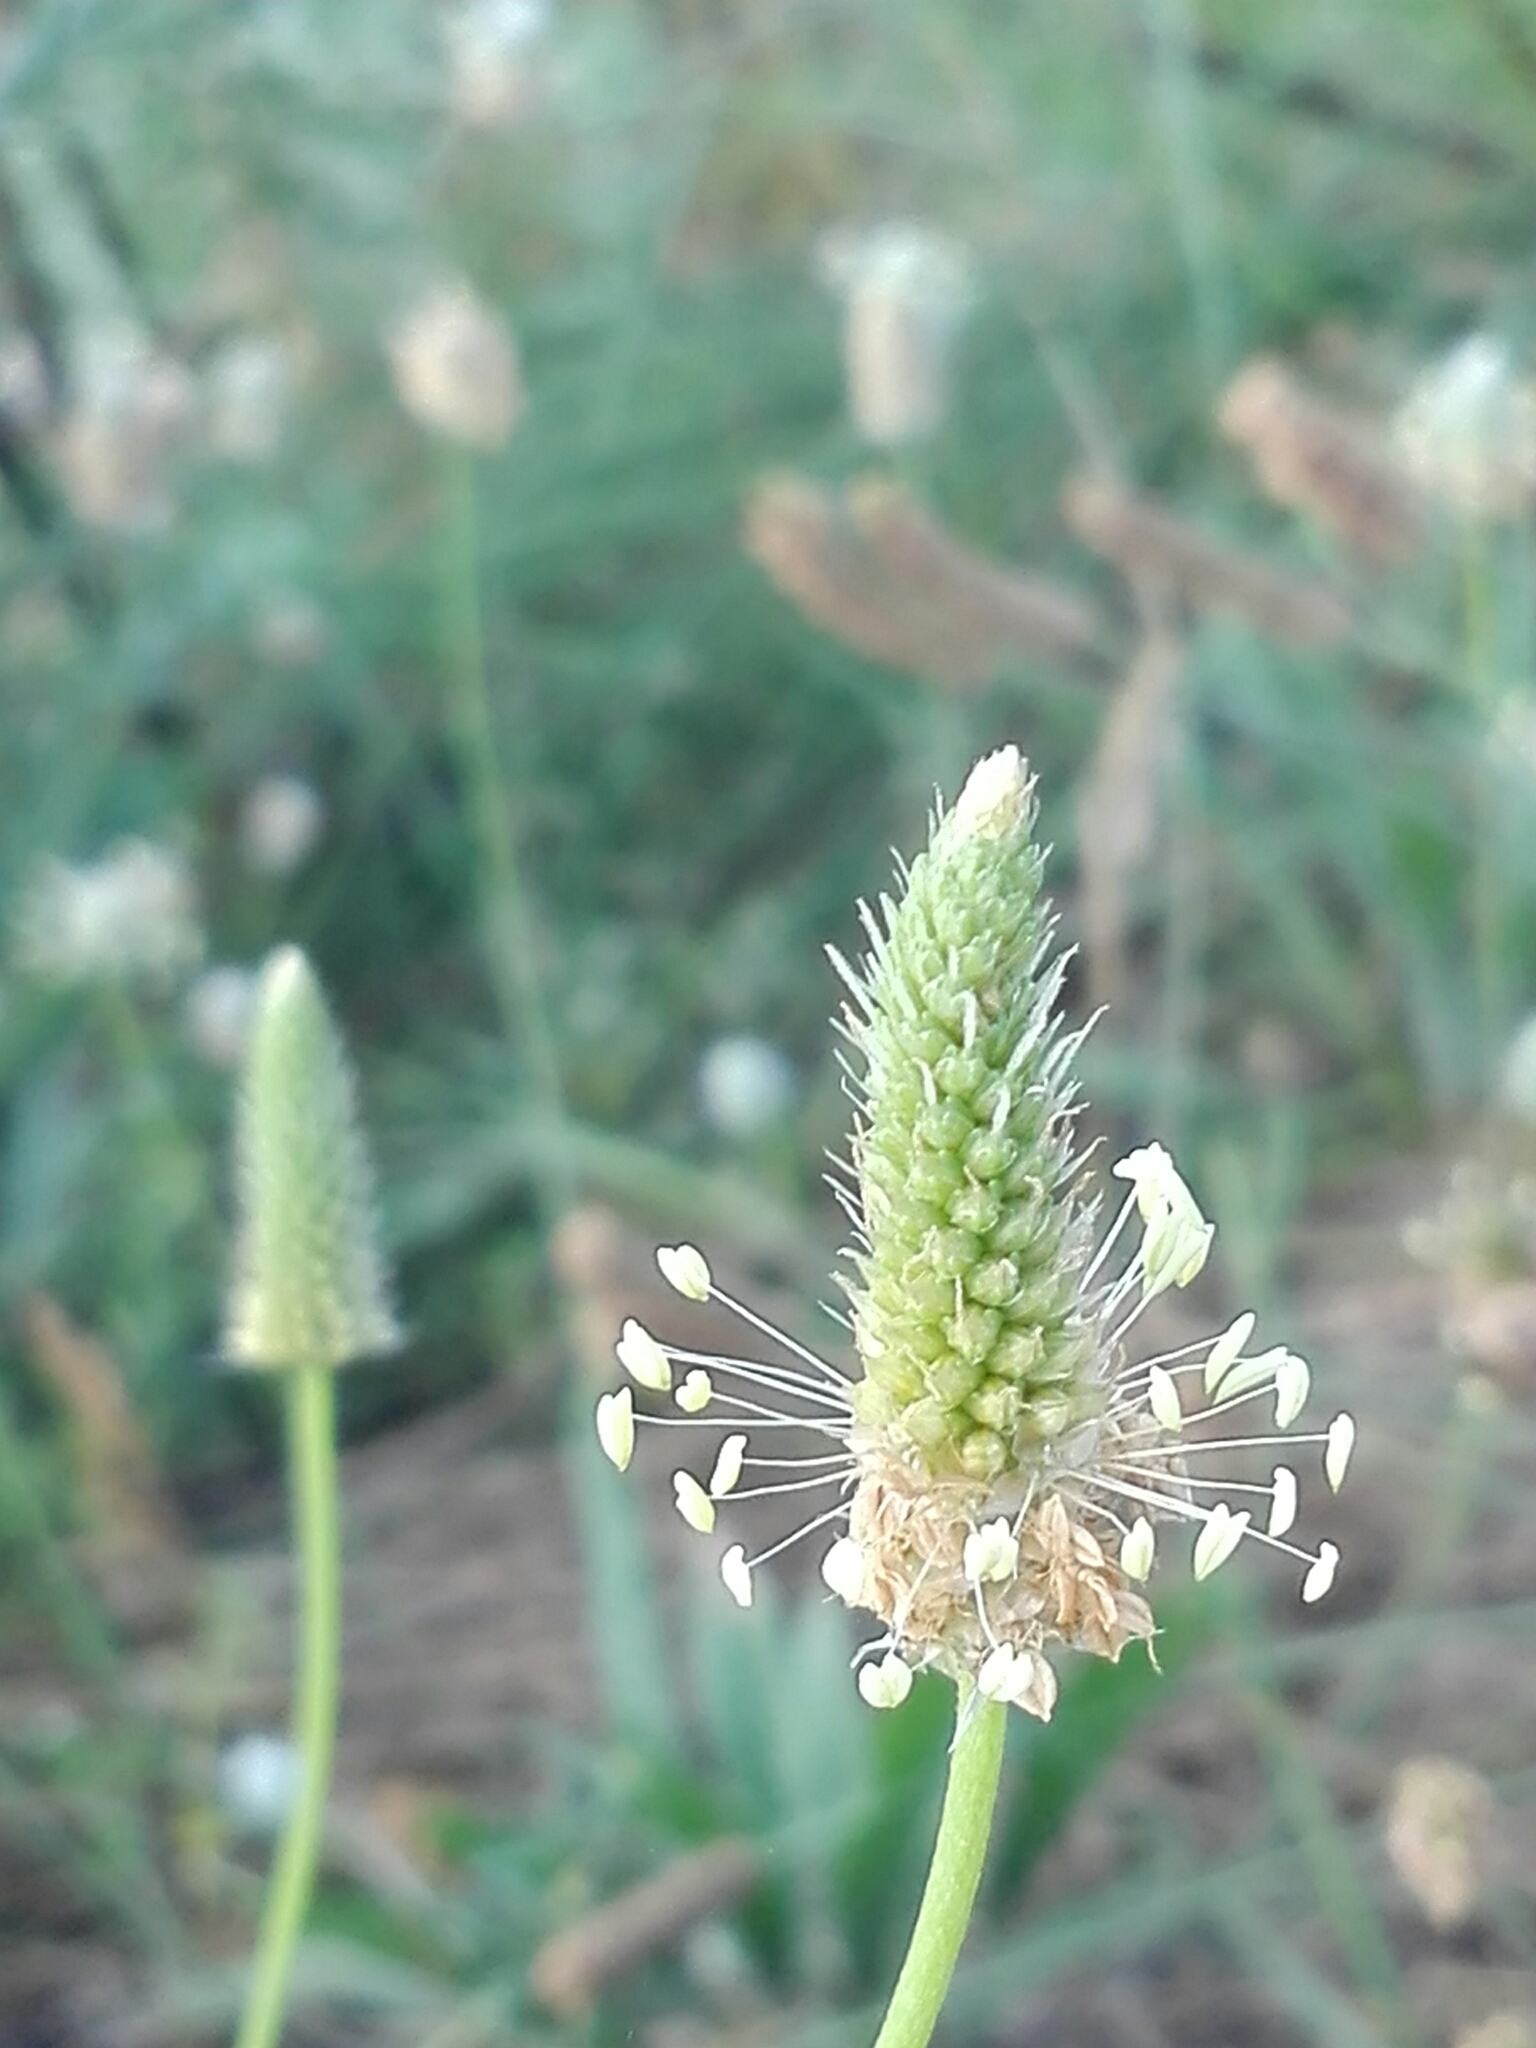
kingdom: Plantae
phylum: Tracheophyta
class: Magnoliopsida
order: Lamiales
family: Plantaginaceae
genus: Plantago
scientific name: Plantago lanceolata
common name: Ribwort plantain
